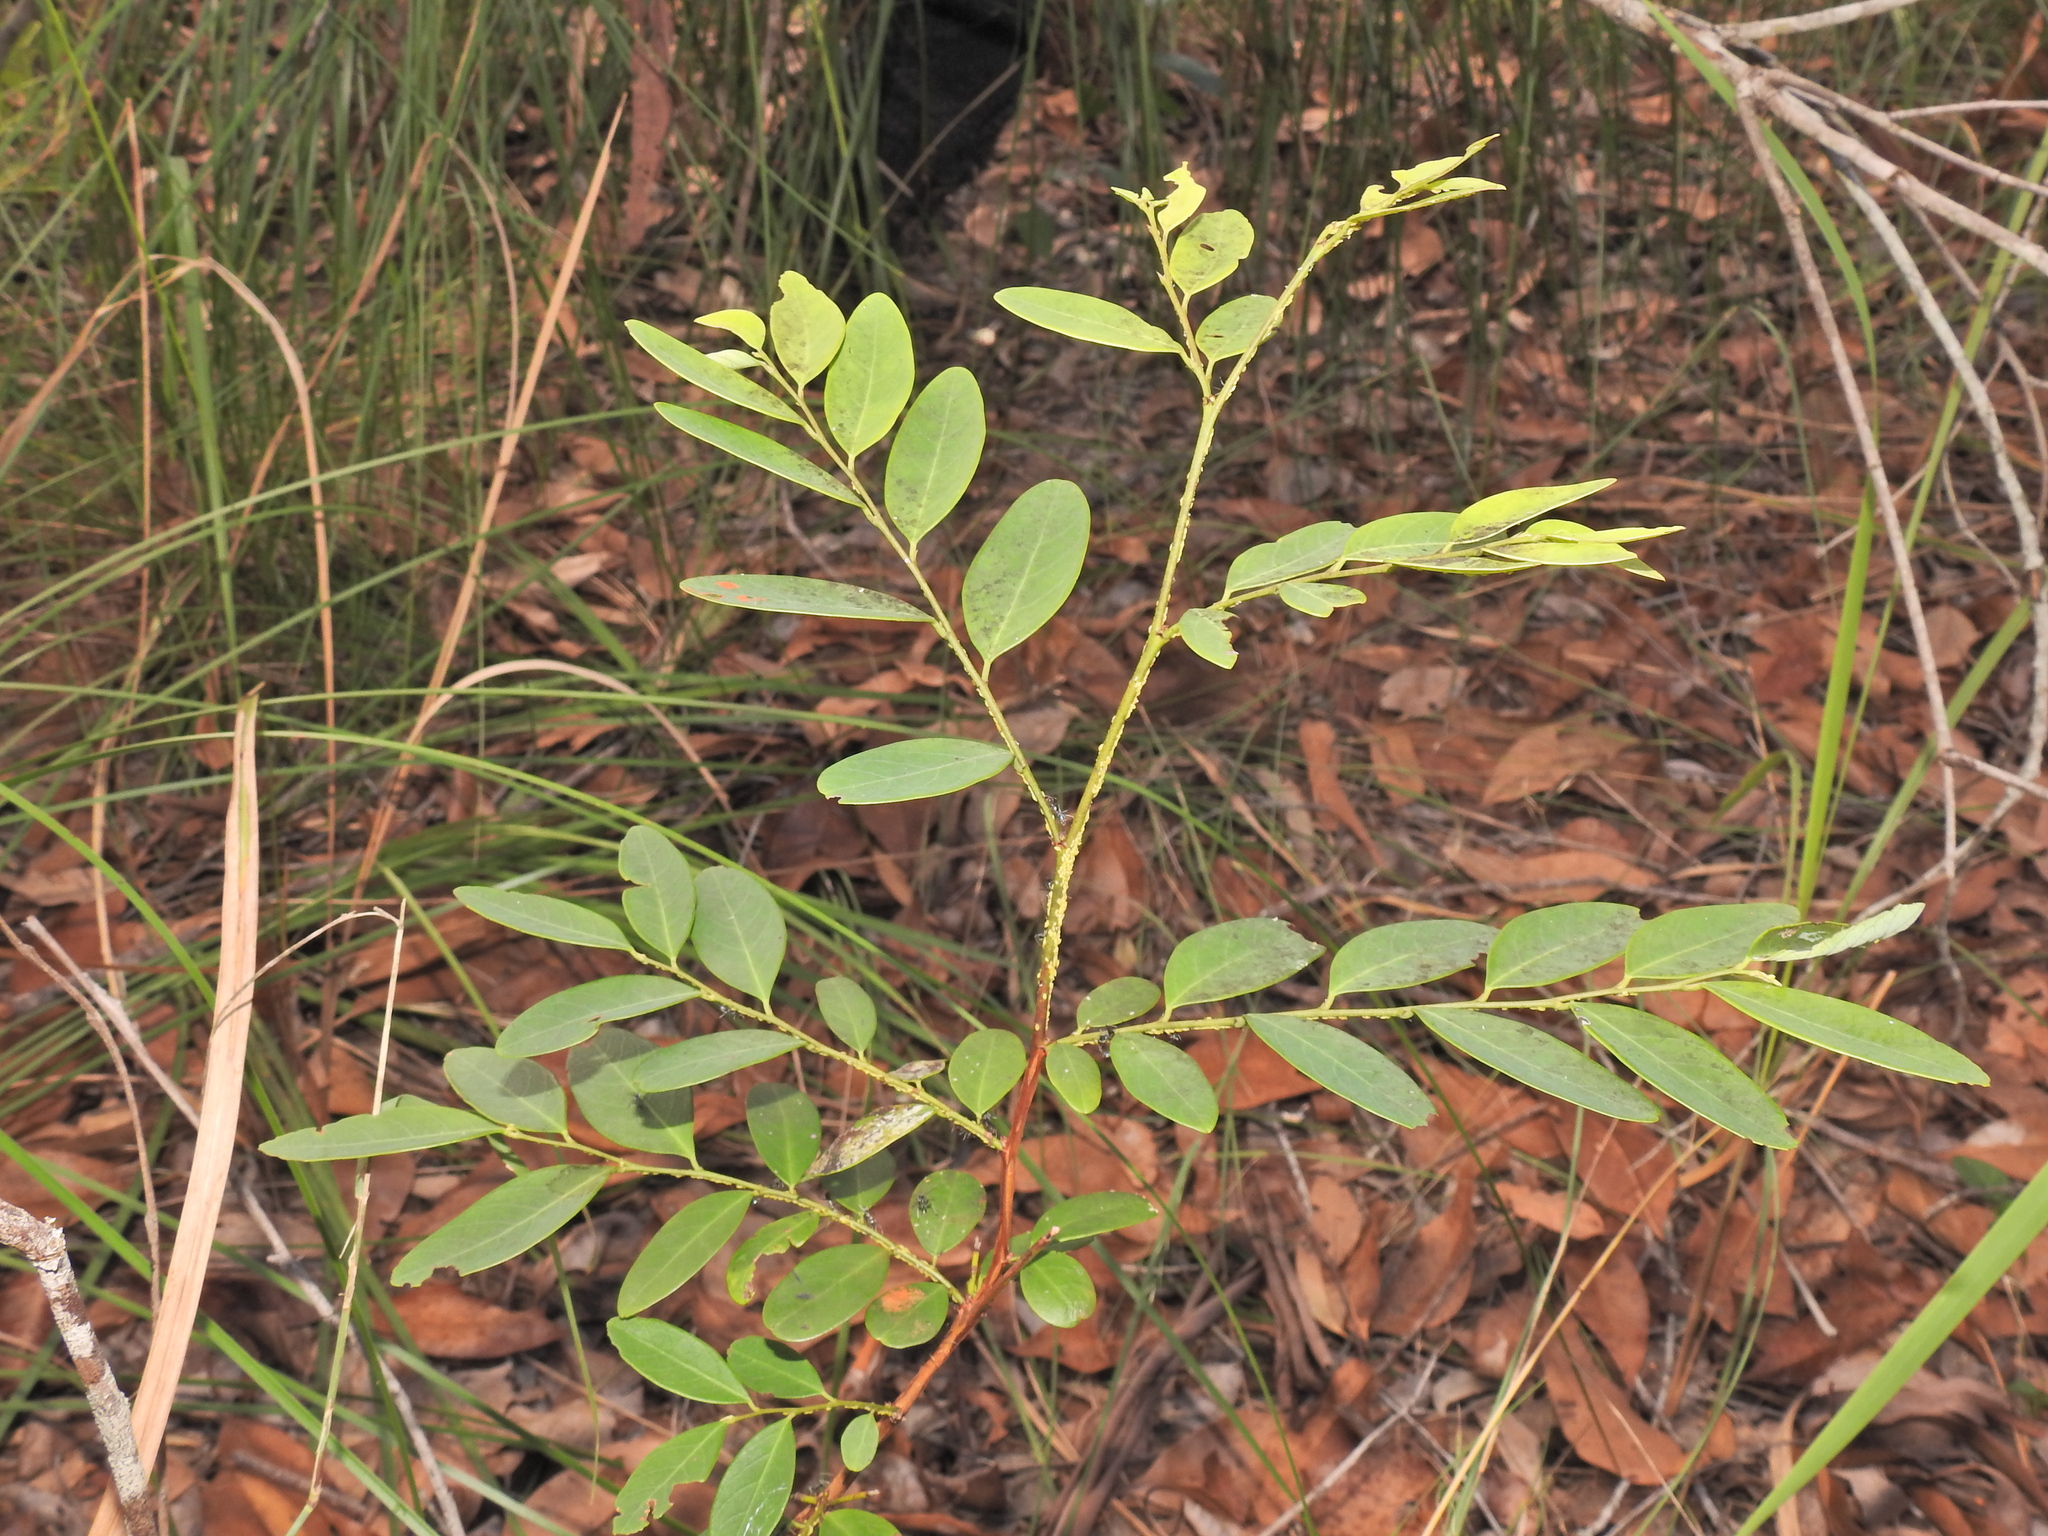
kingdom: Plantae
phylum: Tracheophyta
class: Magnoliopsida
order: Malpighiales
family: Phyllanthaceae
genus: Breynia
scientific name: Breynia oblongifolia
